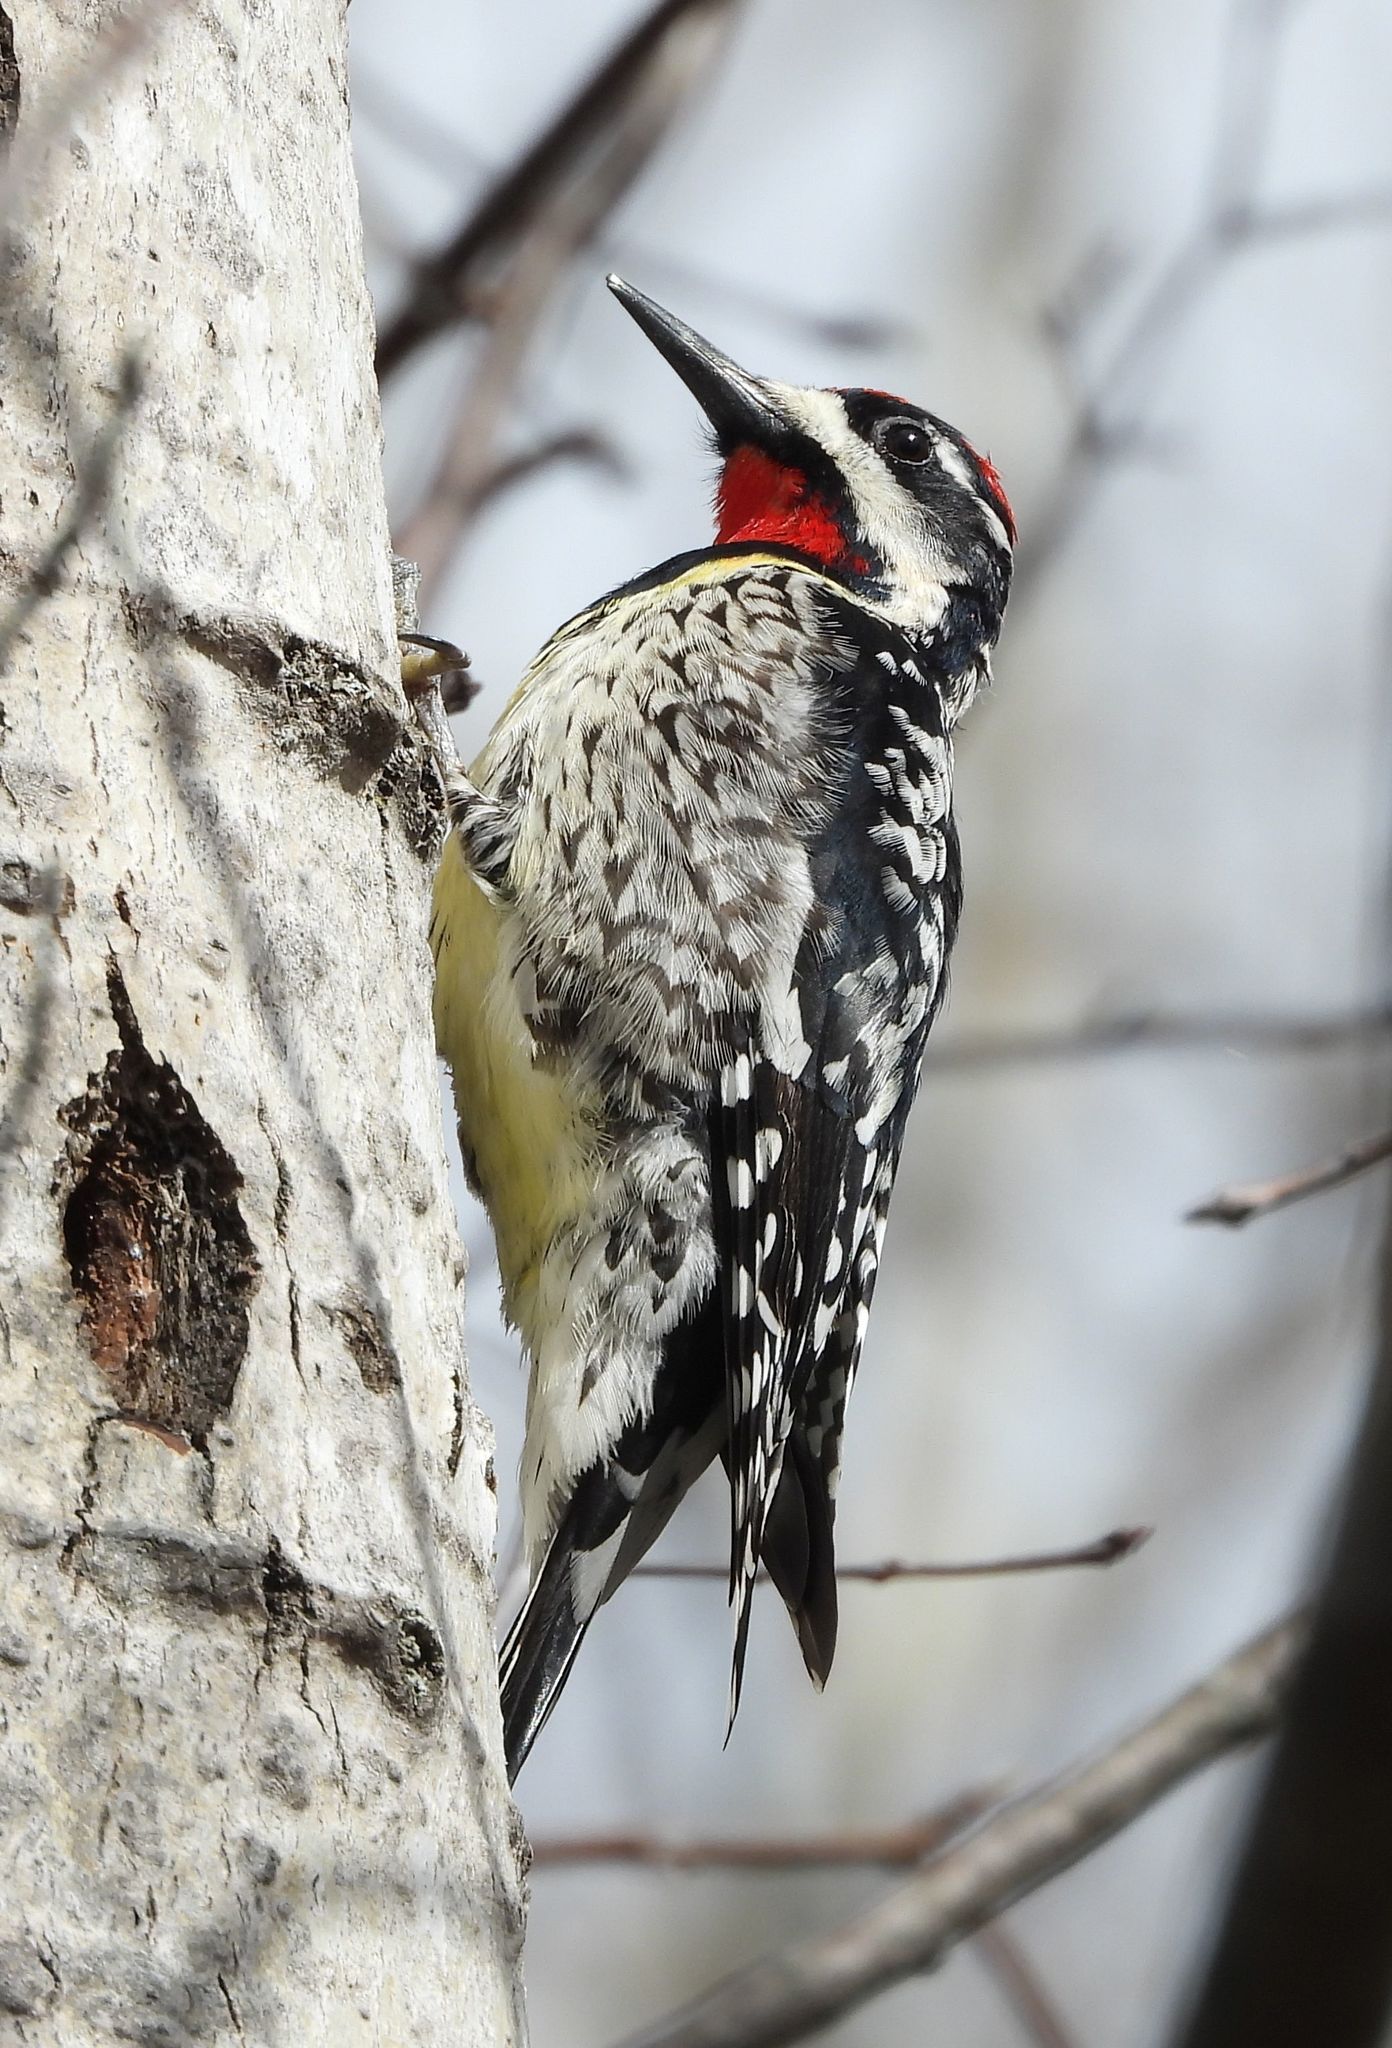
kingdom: Animalia
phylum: Chordata
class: Aves
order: Piciformes
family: Picidae
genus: Sphyrapicus
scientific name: Sphyrapicus varius
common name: Yellow-bellied sapsucker
